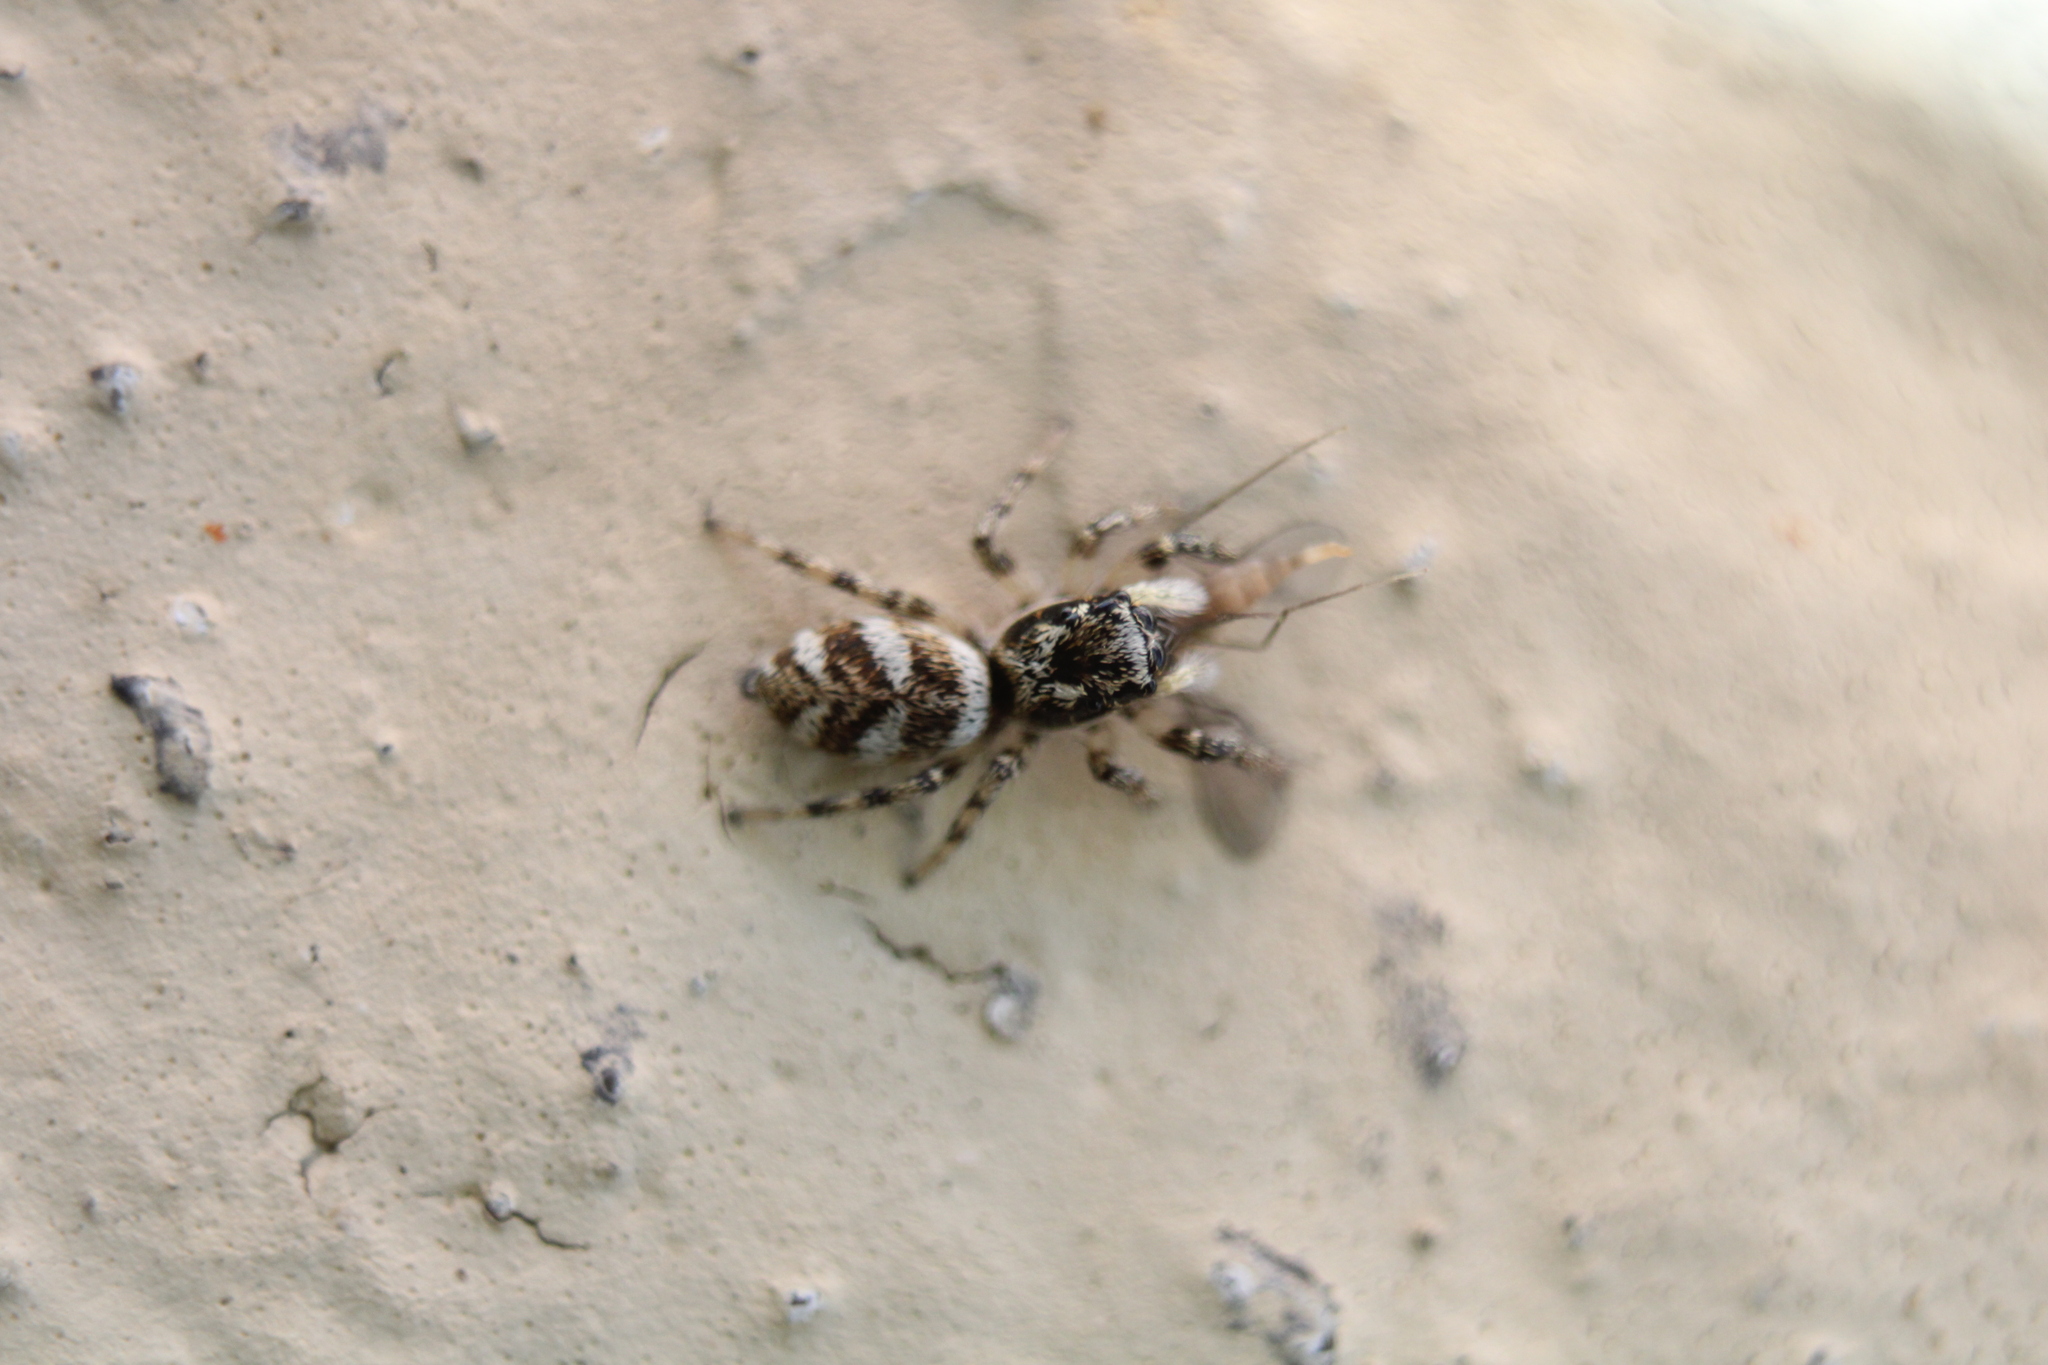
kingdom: Animalia
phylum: Arthropoda
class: Arachnida
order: Araneae
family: Salticidae
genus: Salticus
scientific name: Salticus scenicus
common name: Zebra jumper
